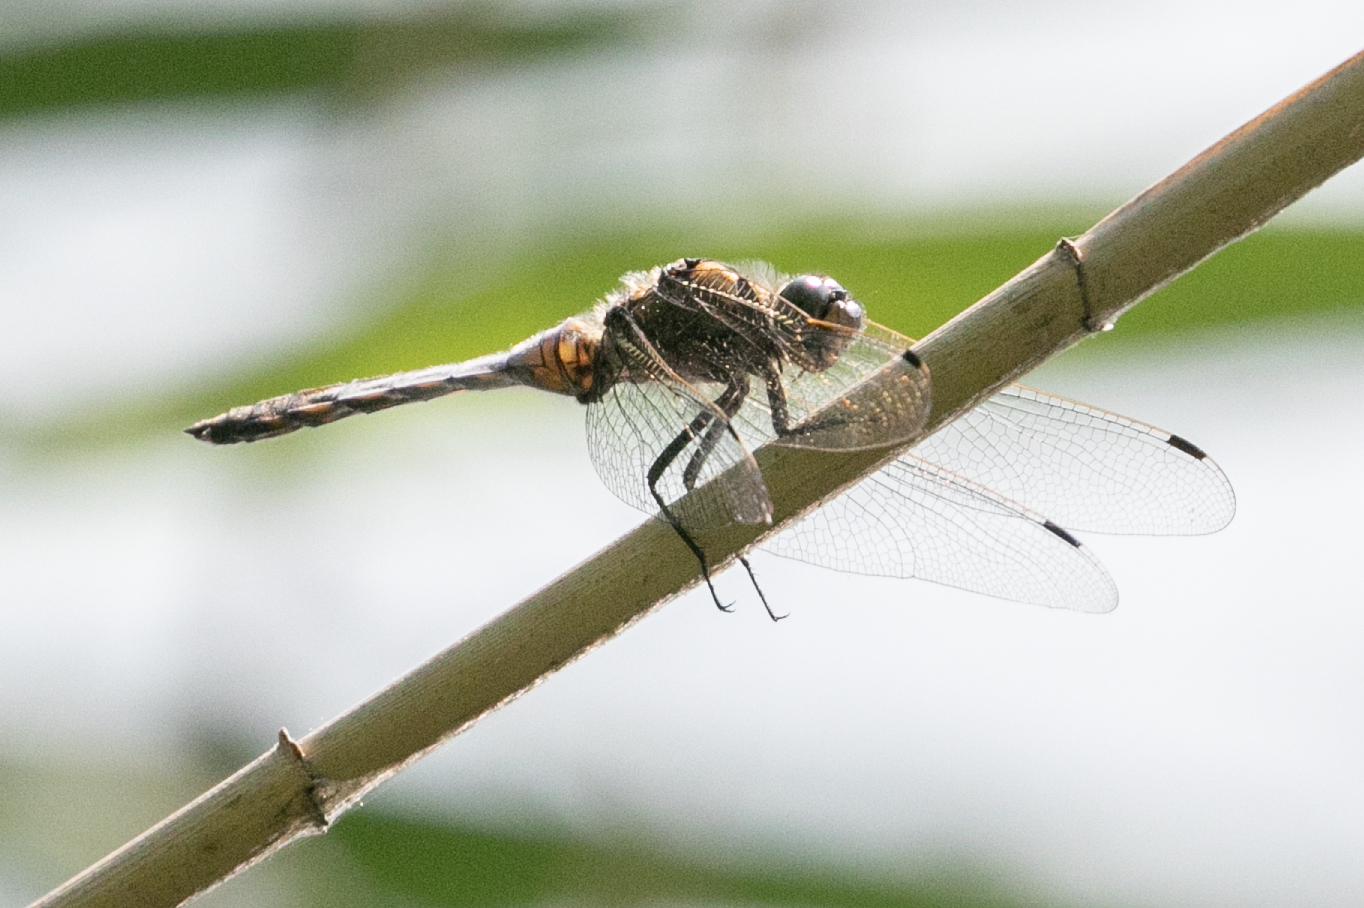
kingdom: Animalia
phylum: Arthropoda
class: Insecta
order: Odonata
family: Libellulidae
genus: Orthetrum
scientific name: Orthetrum cancellatum
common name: Black-tailed skimmer
